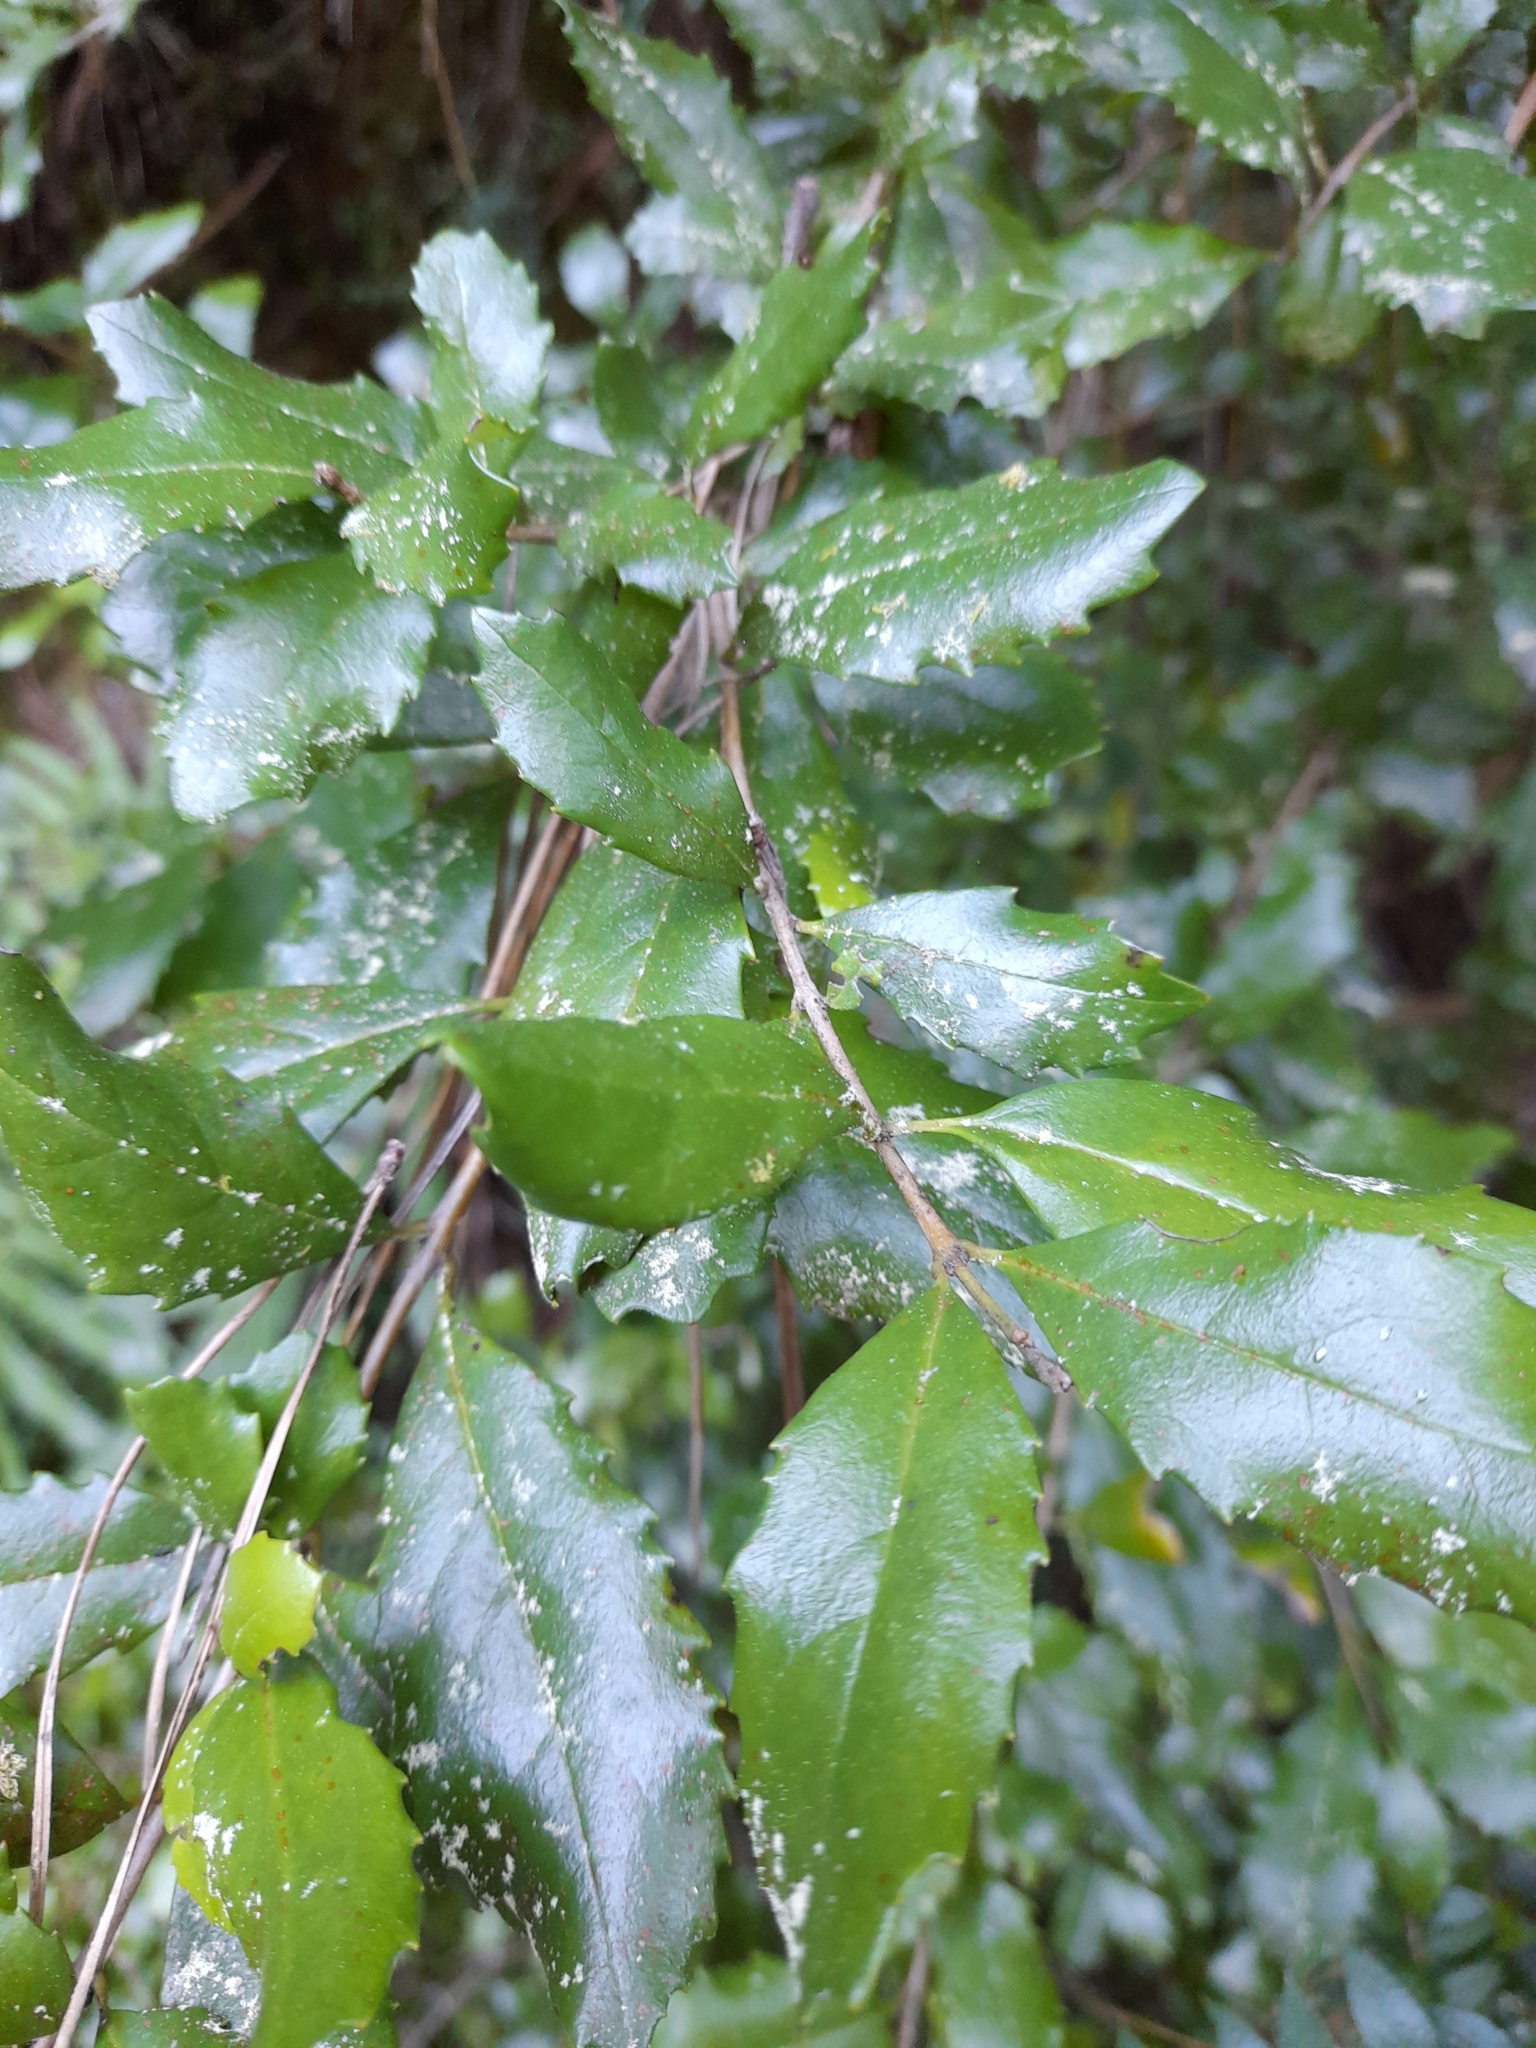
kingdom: Plantae
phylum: Tracheophyta
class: Magnoliopsida
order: Proteales
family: Proteaceae
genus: Lomatia
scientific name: Lomatia dentata
